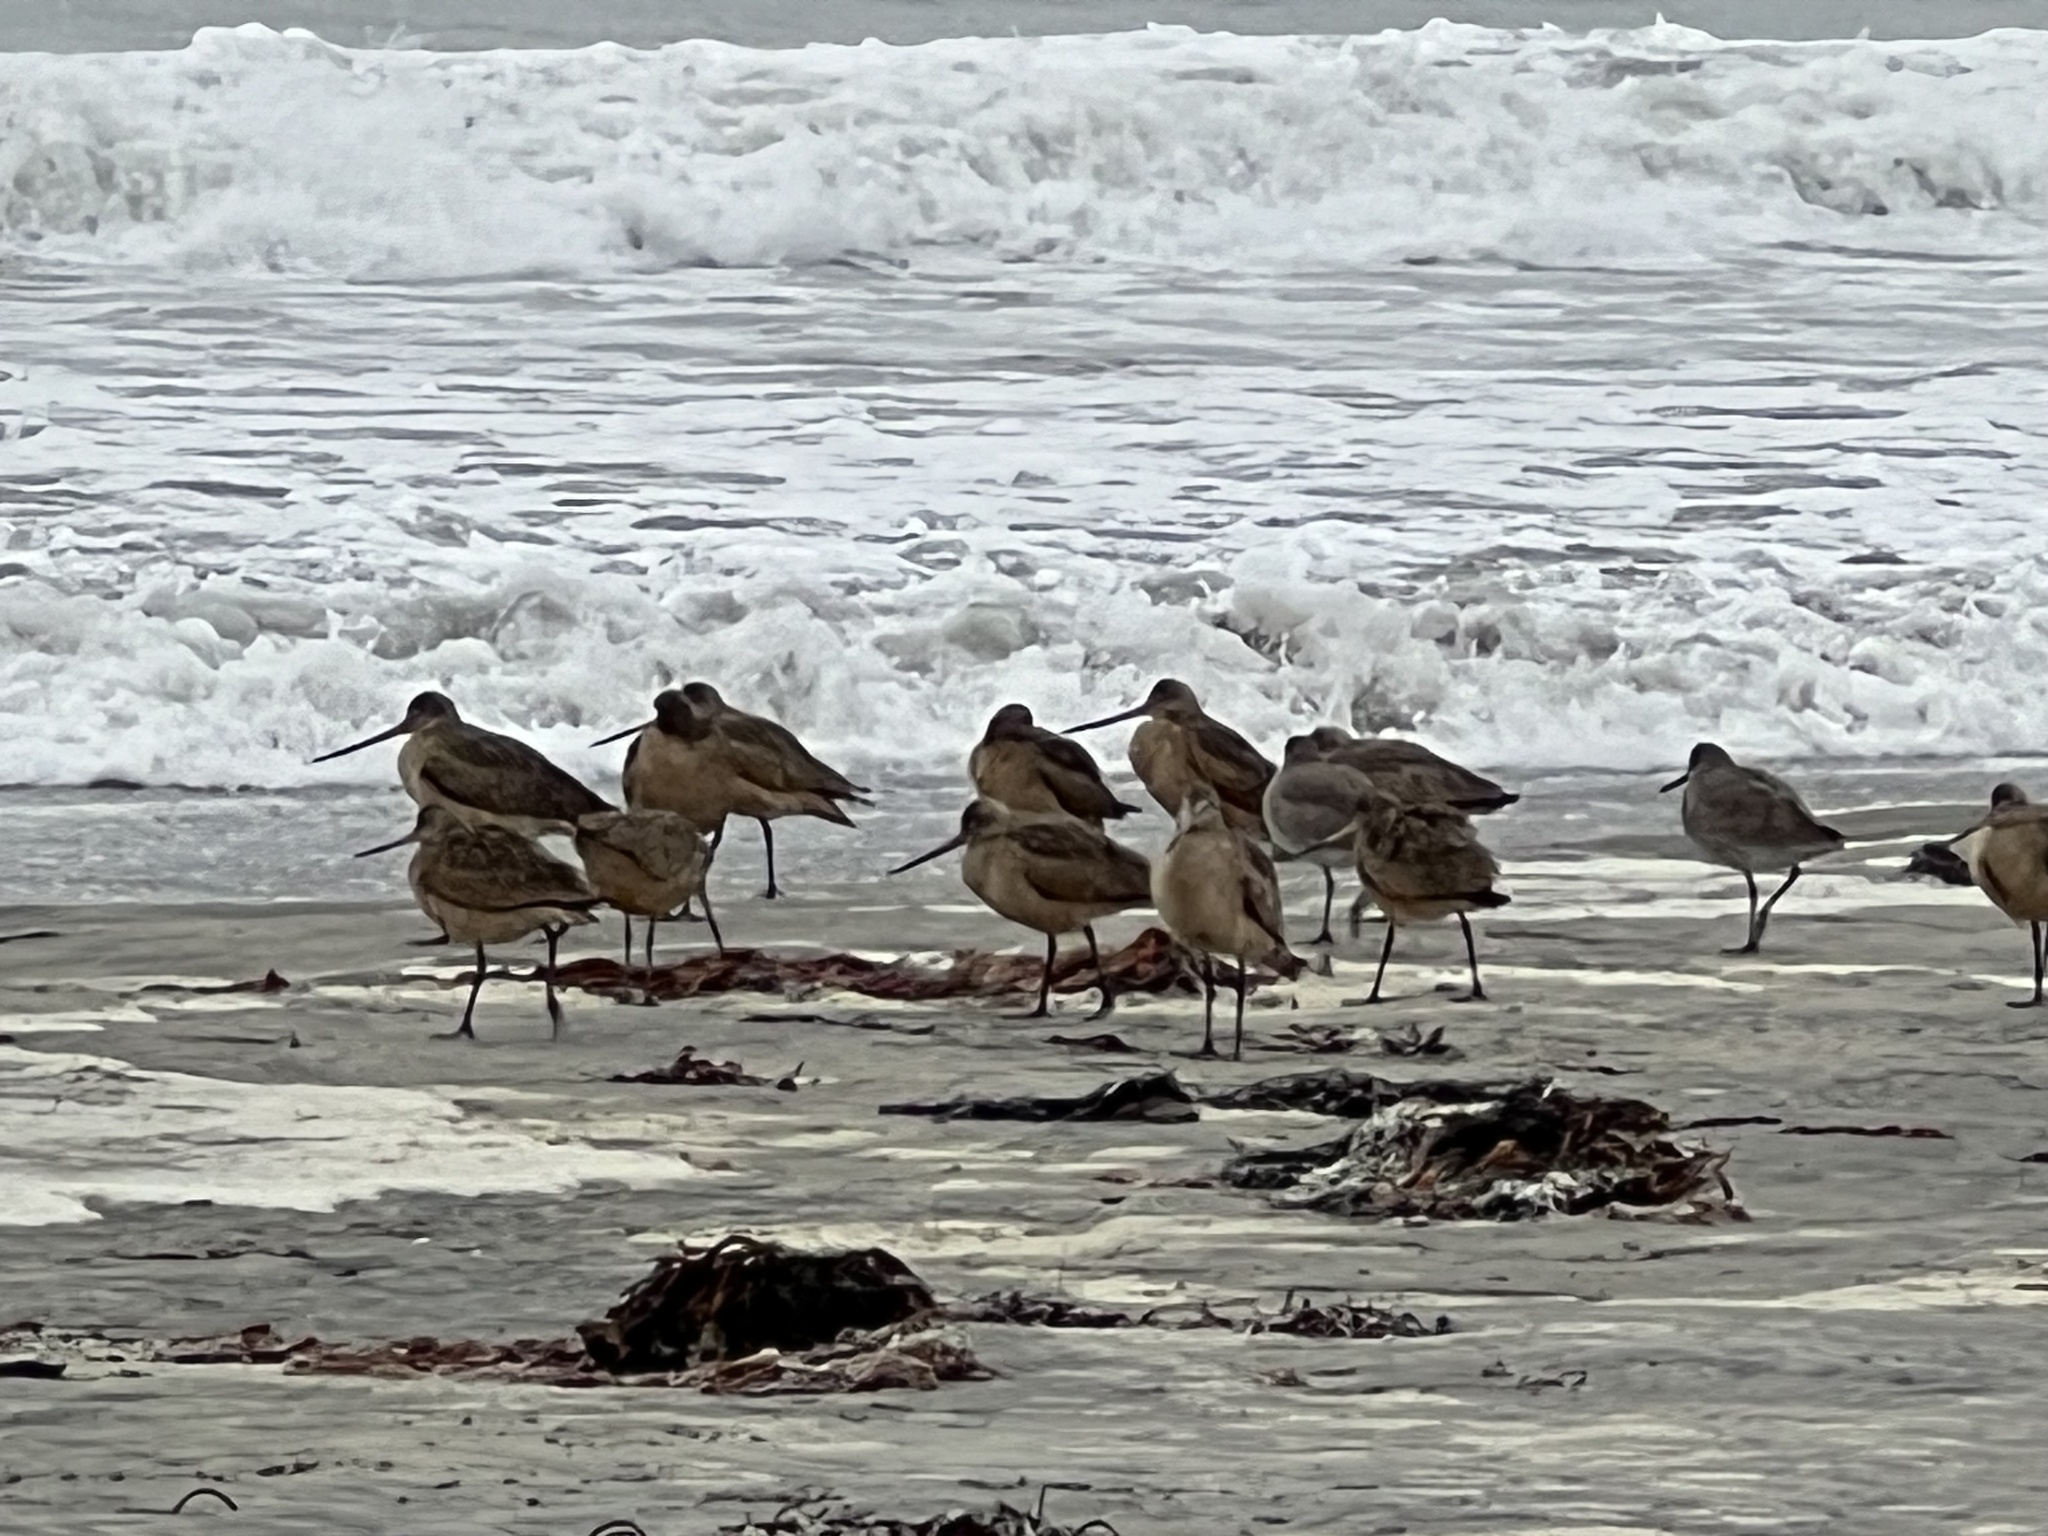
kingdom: Animalia
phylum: Chordata
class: Aves
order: Charadriiformes
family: Scolopacidae
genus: Limosa
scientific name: Limosa fedoa
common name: Marbled godwit
